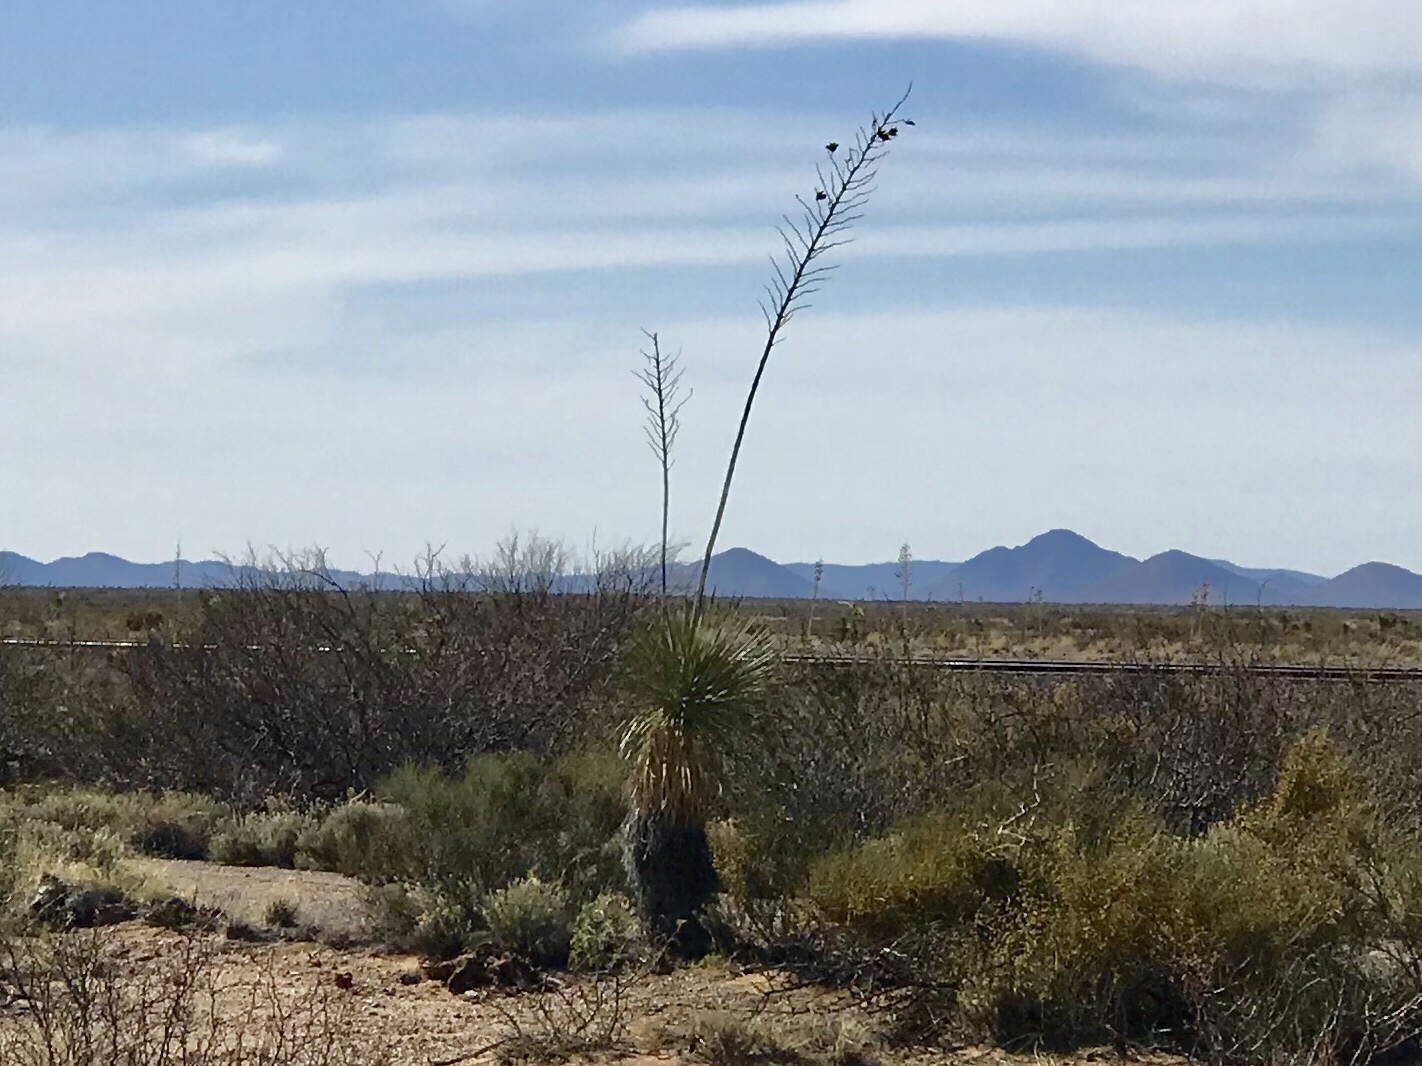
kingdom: Plantae
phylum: Tracheophyta
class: Liliopsida
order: Asparagales
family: Asparagaceae
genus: Yucca
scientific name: Yucca elata
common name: Palmella
